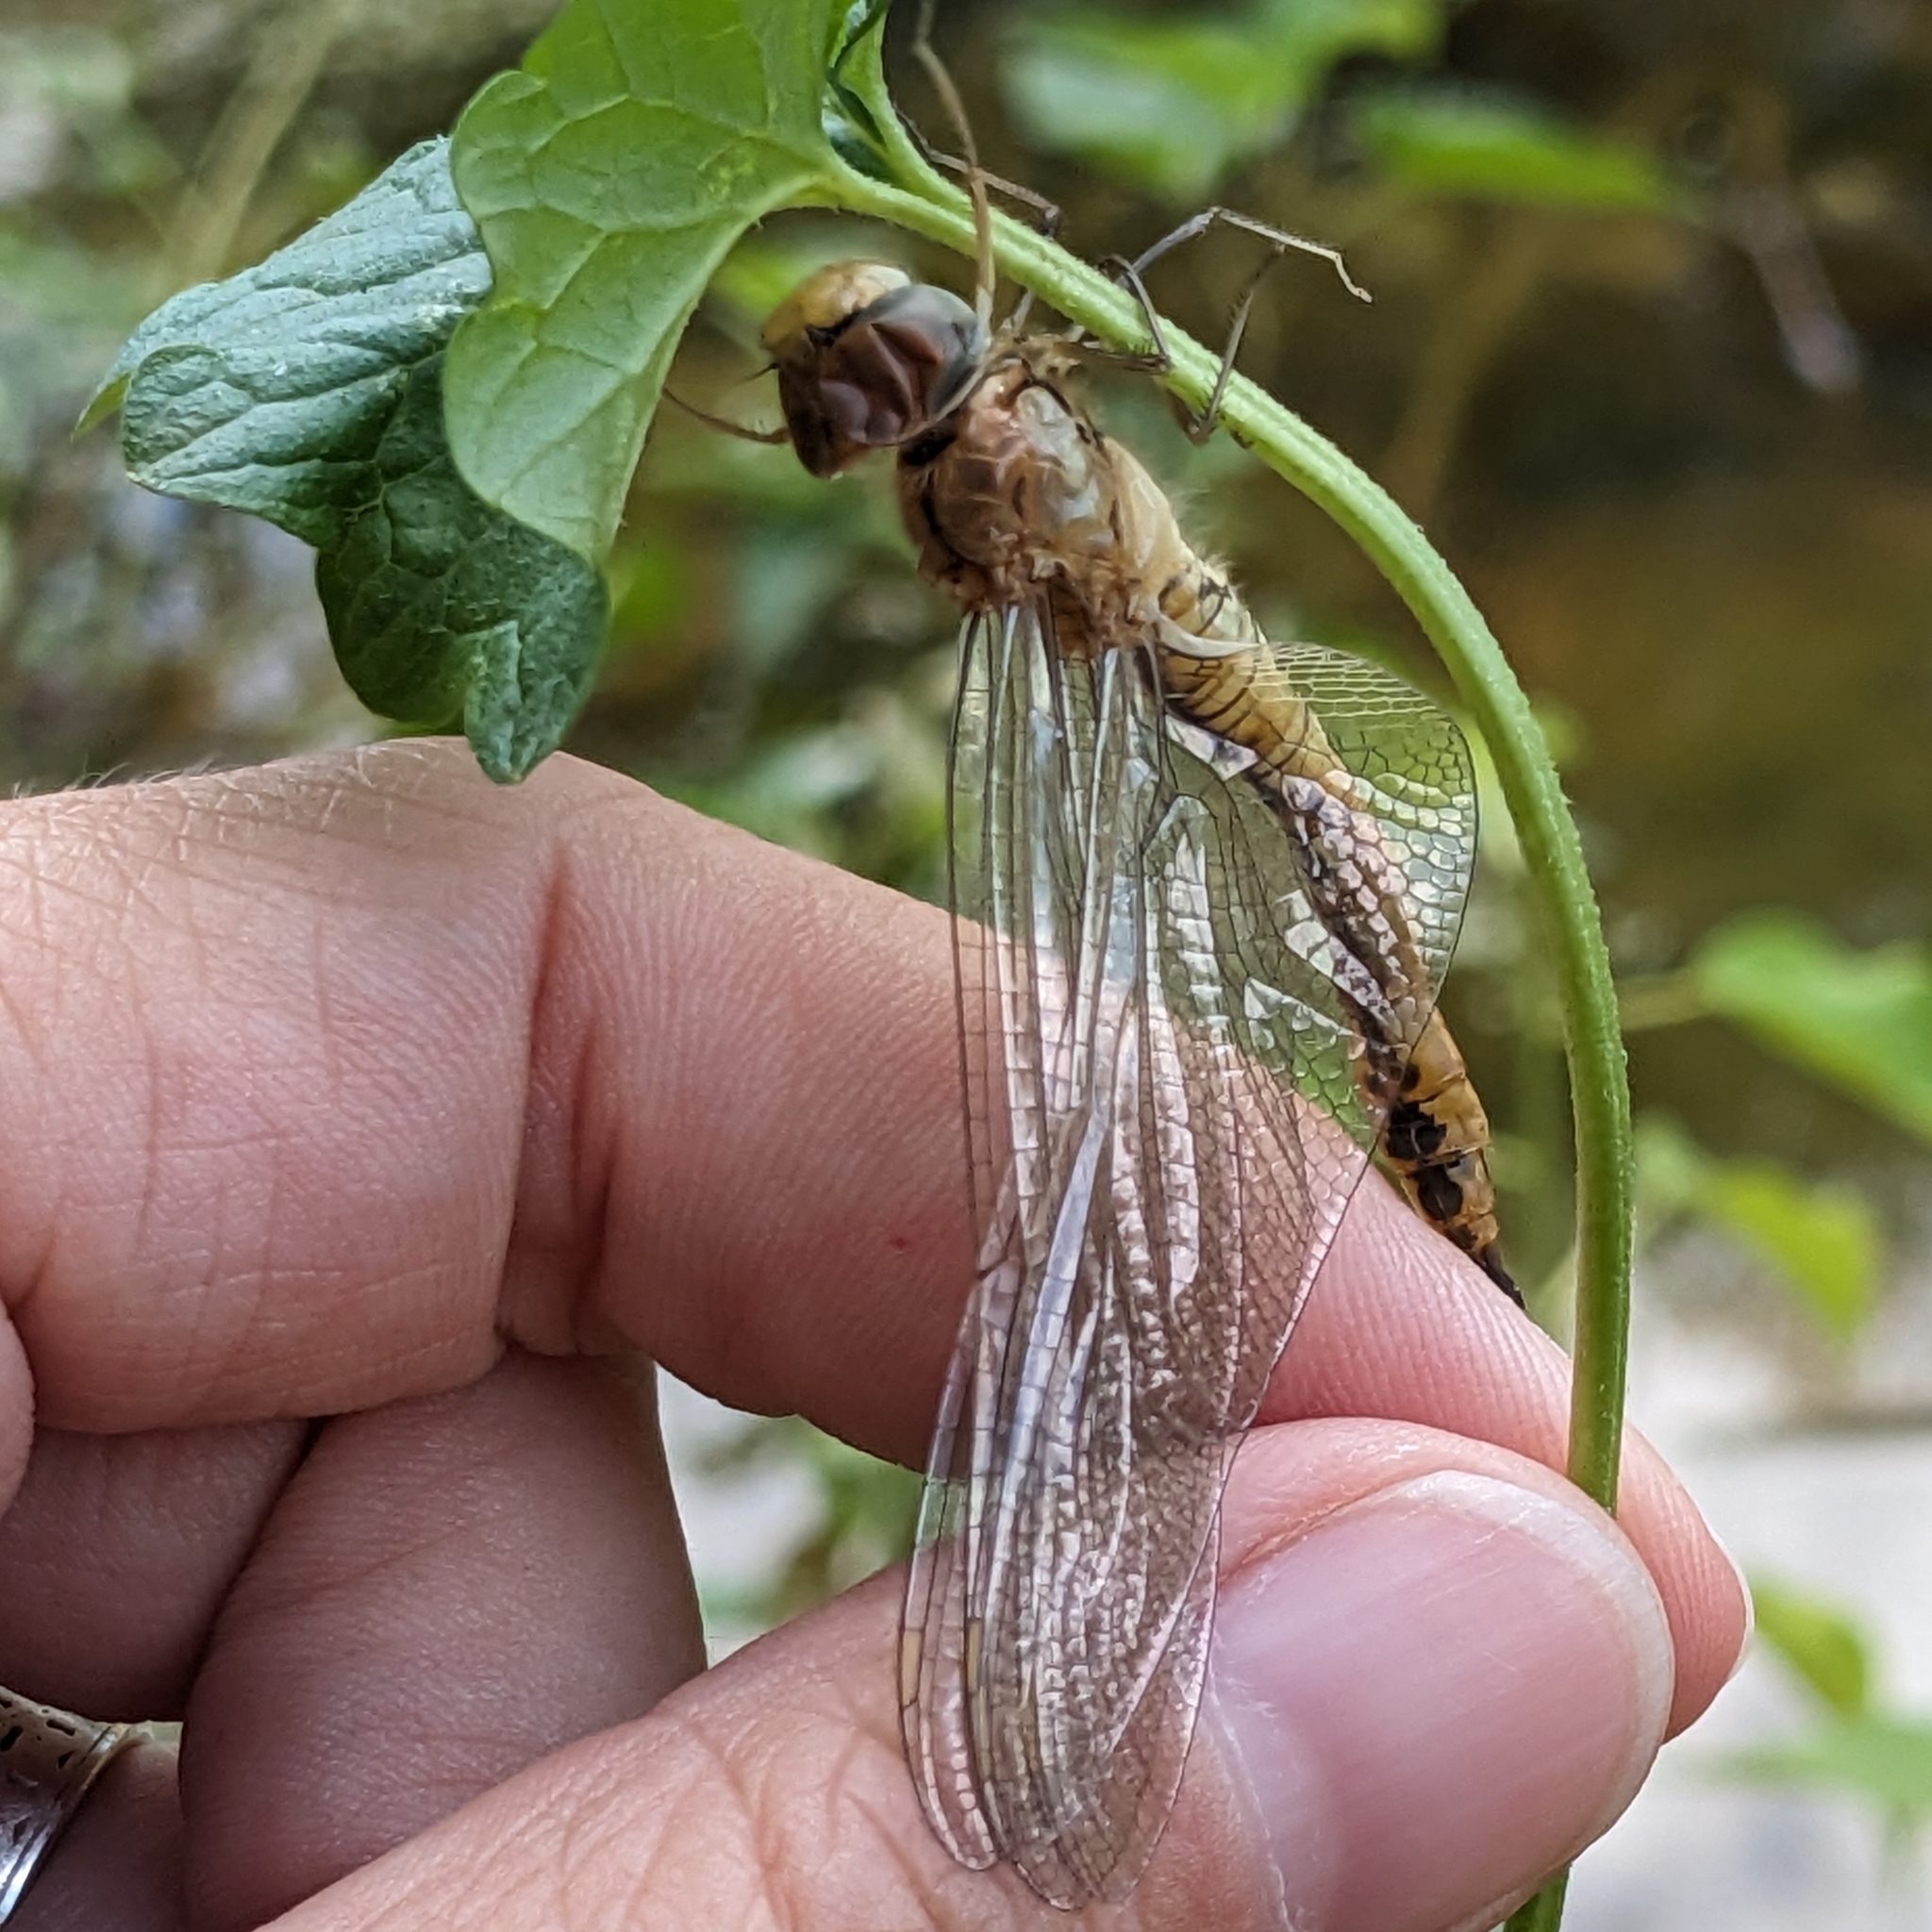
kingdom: Animalia
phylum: Arthropoda
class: Insecta
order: Odonata
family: Libellulidae
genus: Pantala
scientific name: Pantala flavescens
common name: Wandering glider
